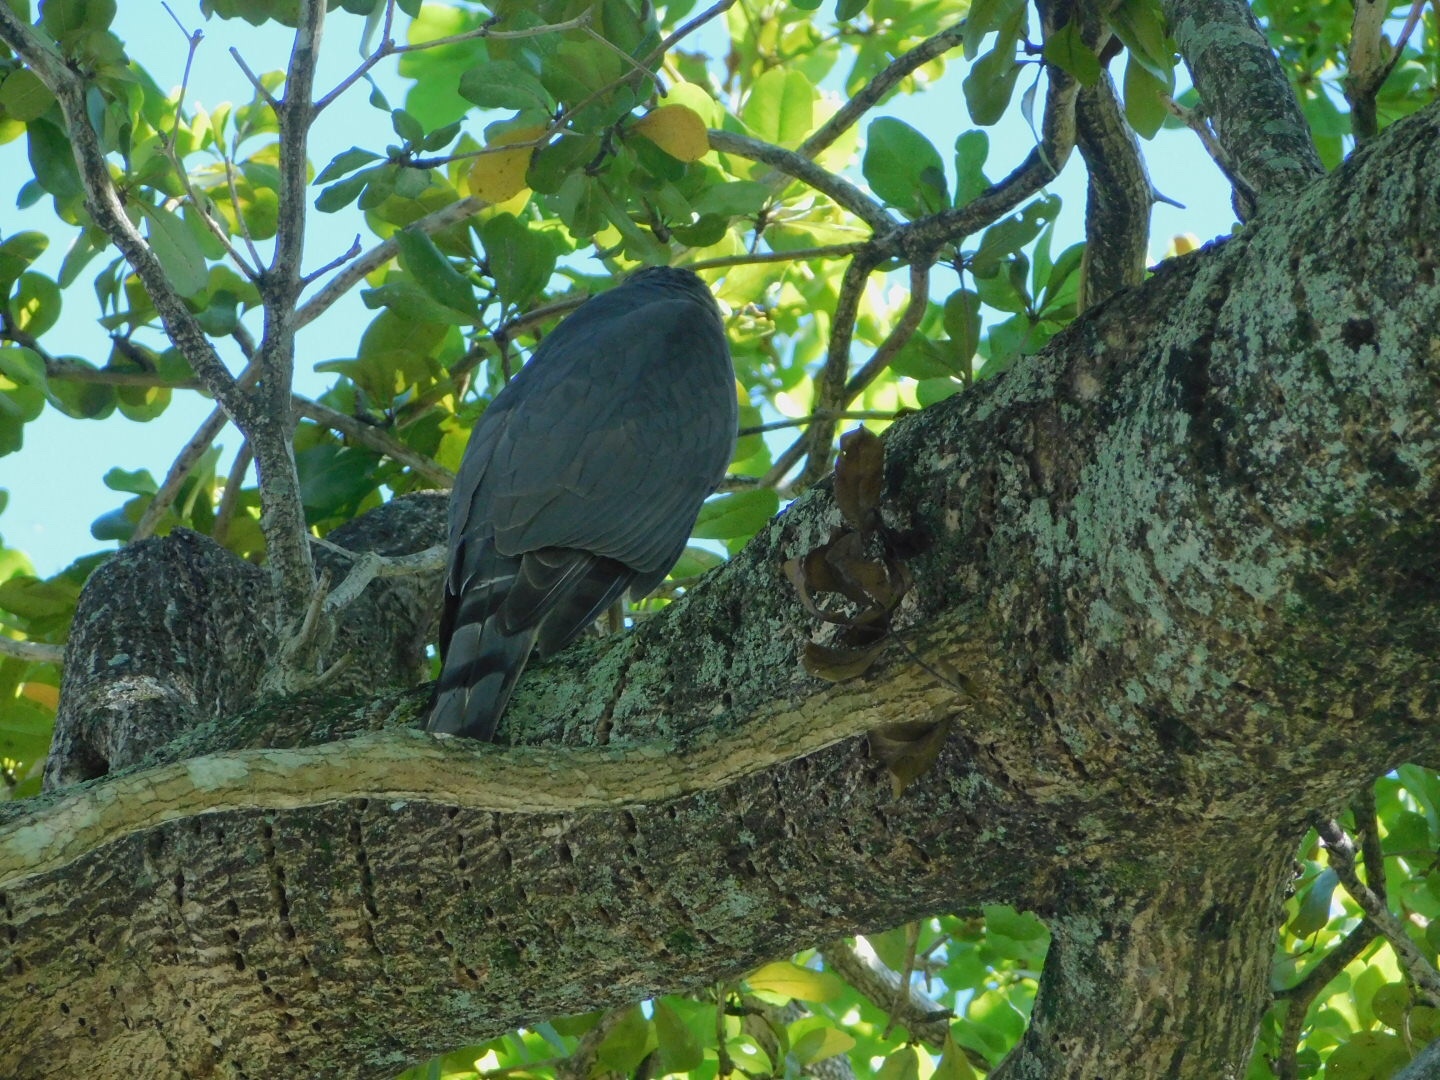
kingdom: Animalia
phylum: Chordata
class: Aves
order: Accipitriformes
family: Accipitridae
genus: Accipiter
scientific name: Accipiter cooperii
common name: Cooper's hawk
